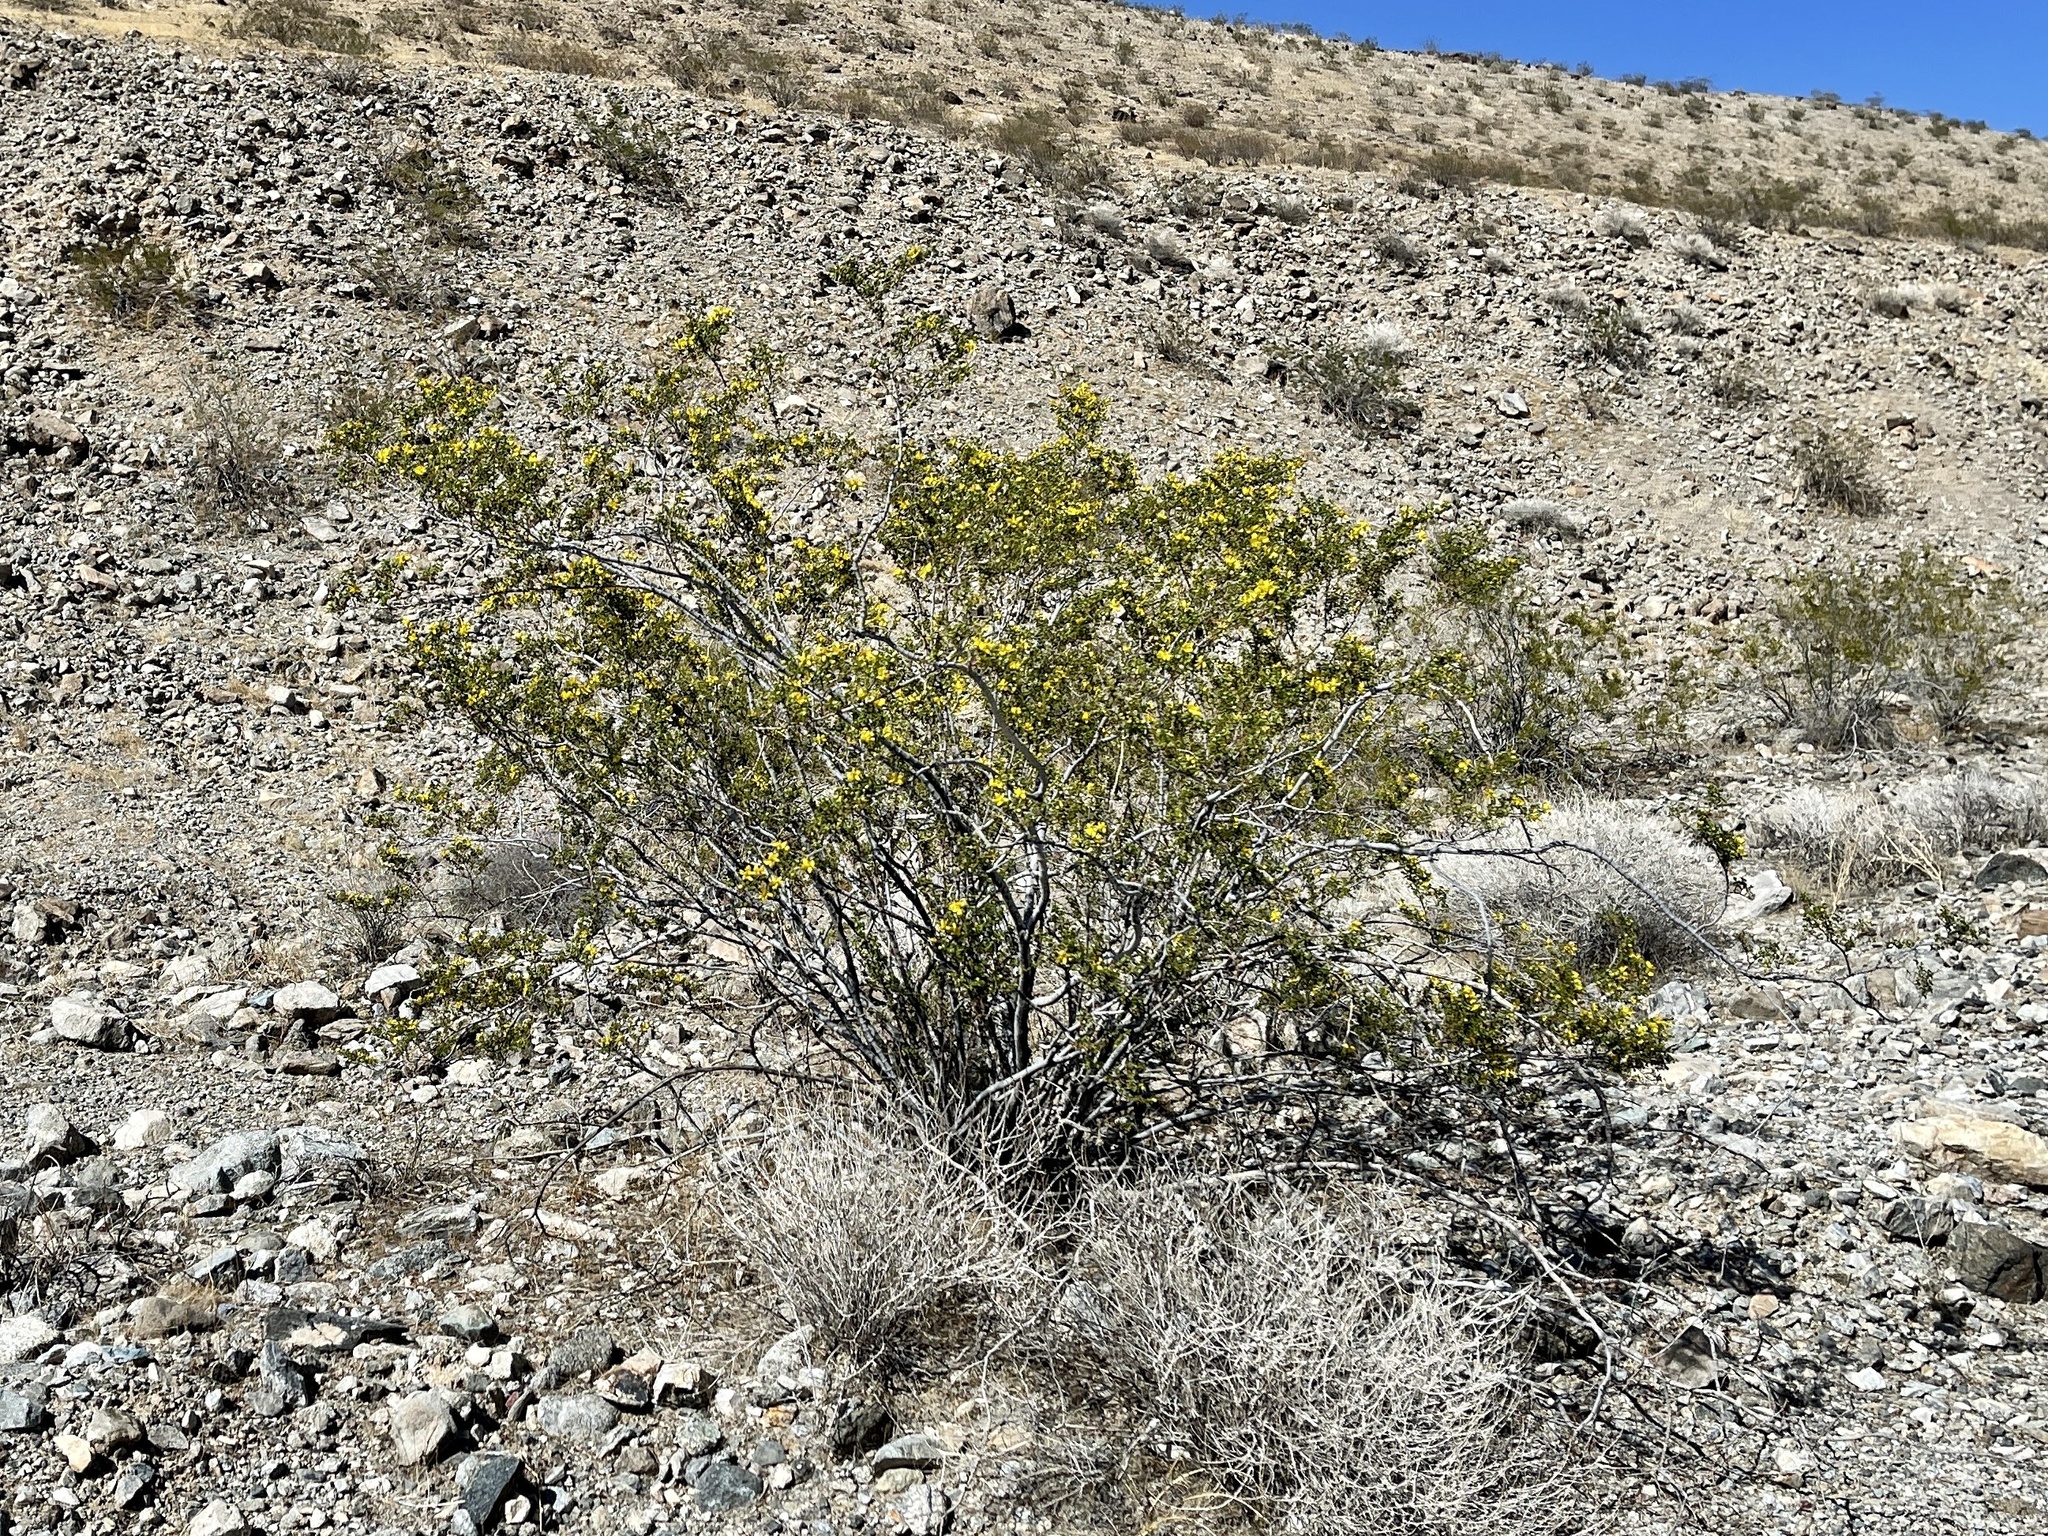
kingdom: Plantae
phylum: Tracheophyta
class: Magnoliopsida
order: Zygophyllales
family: Zygophyllaceae
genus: Larrea
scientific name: Larrea tridentata
